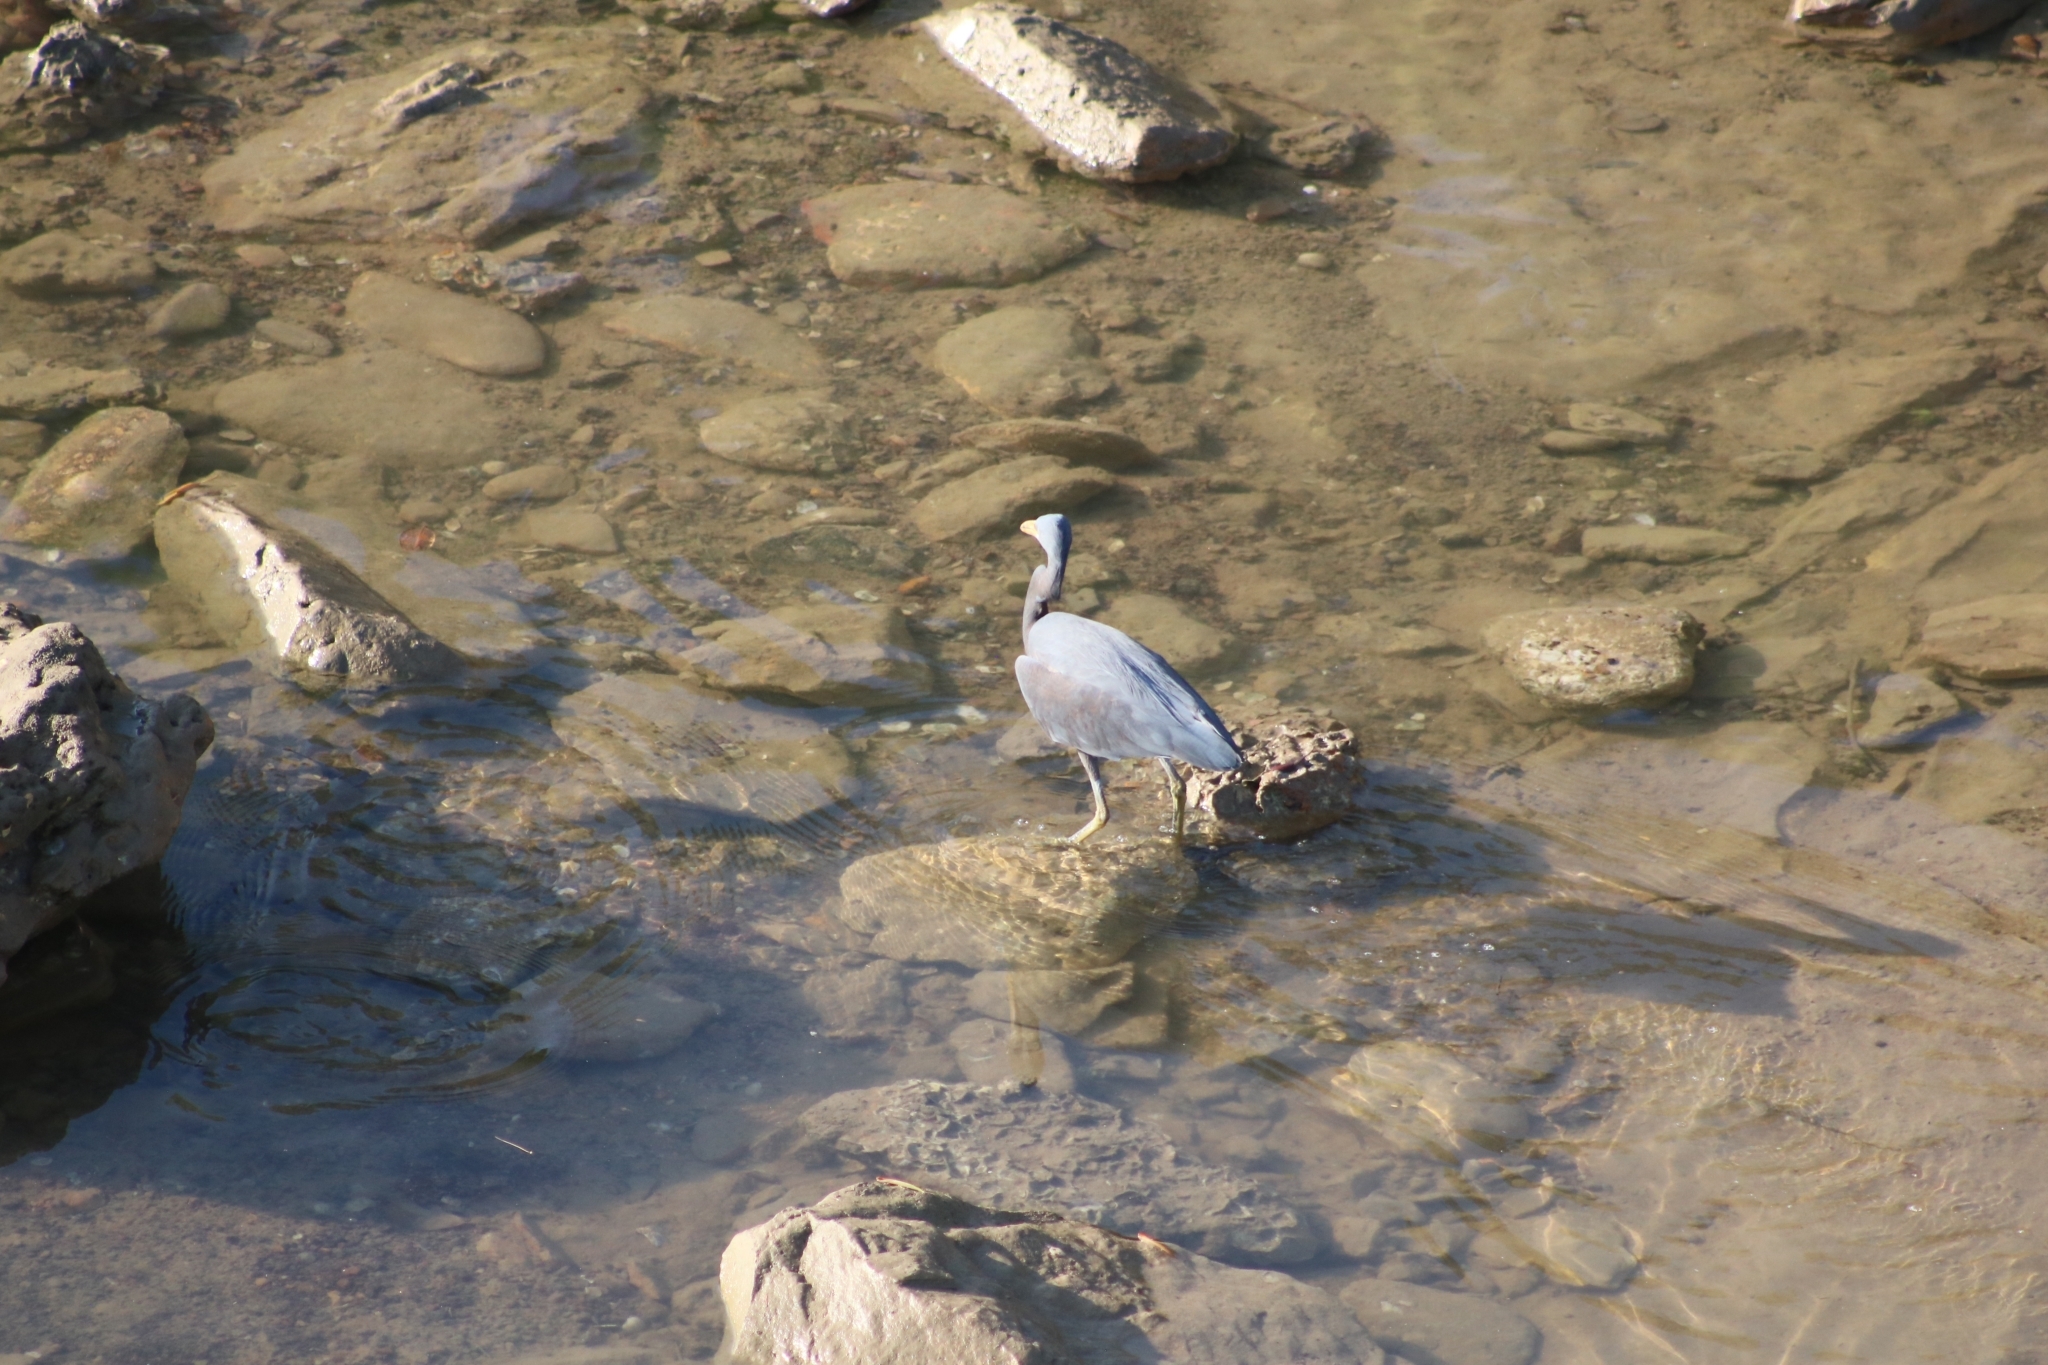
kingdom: Animalia
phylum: Chordata
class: Aves
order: Pelecaniformes
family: Ardeidae
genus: Egretta
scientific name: Egretta sacra
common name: Pacific reef heron
